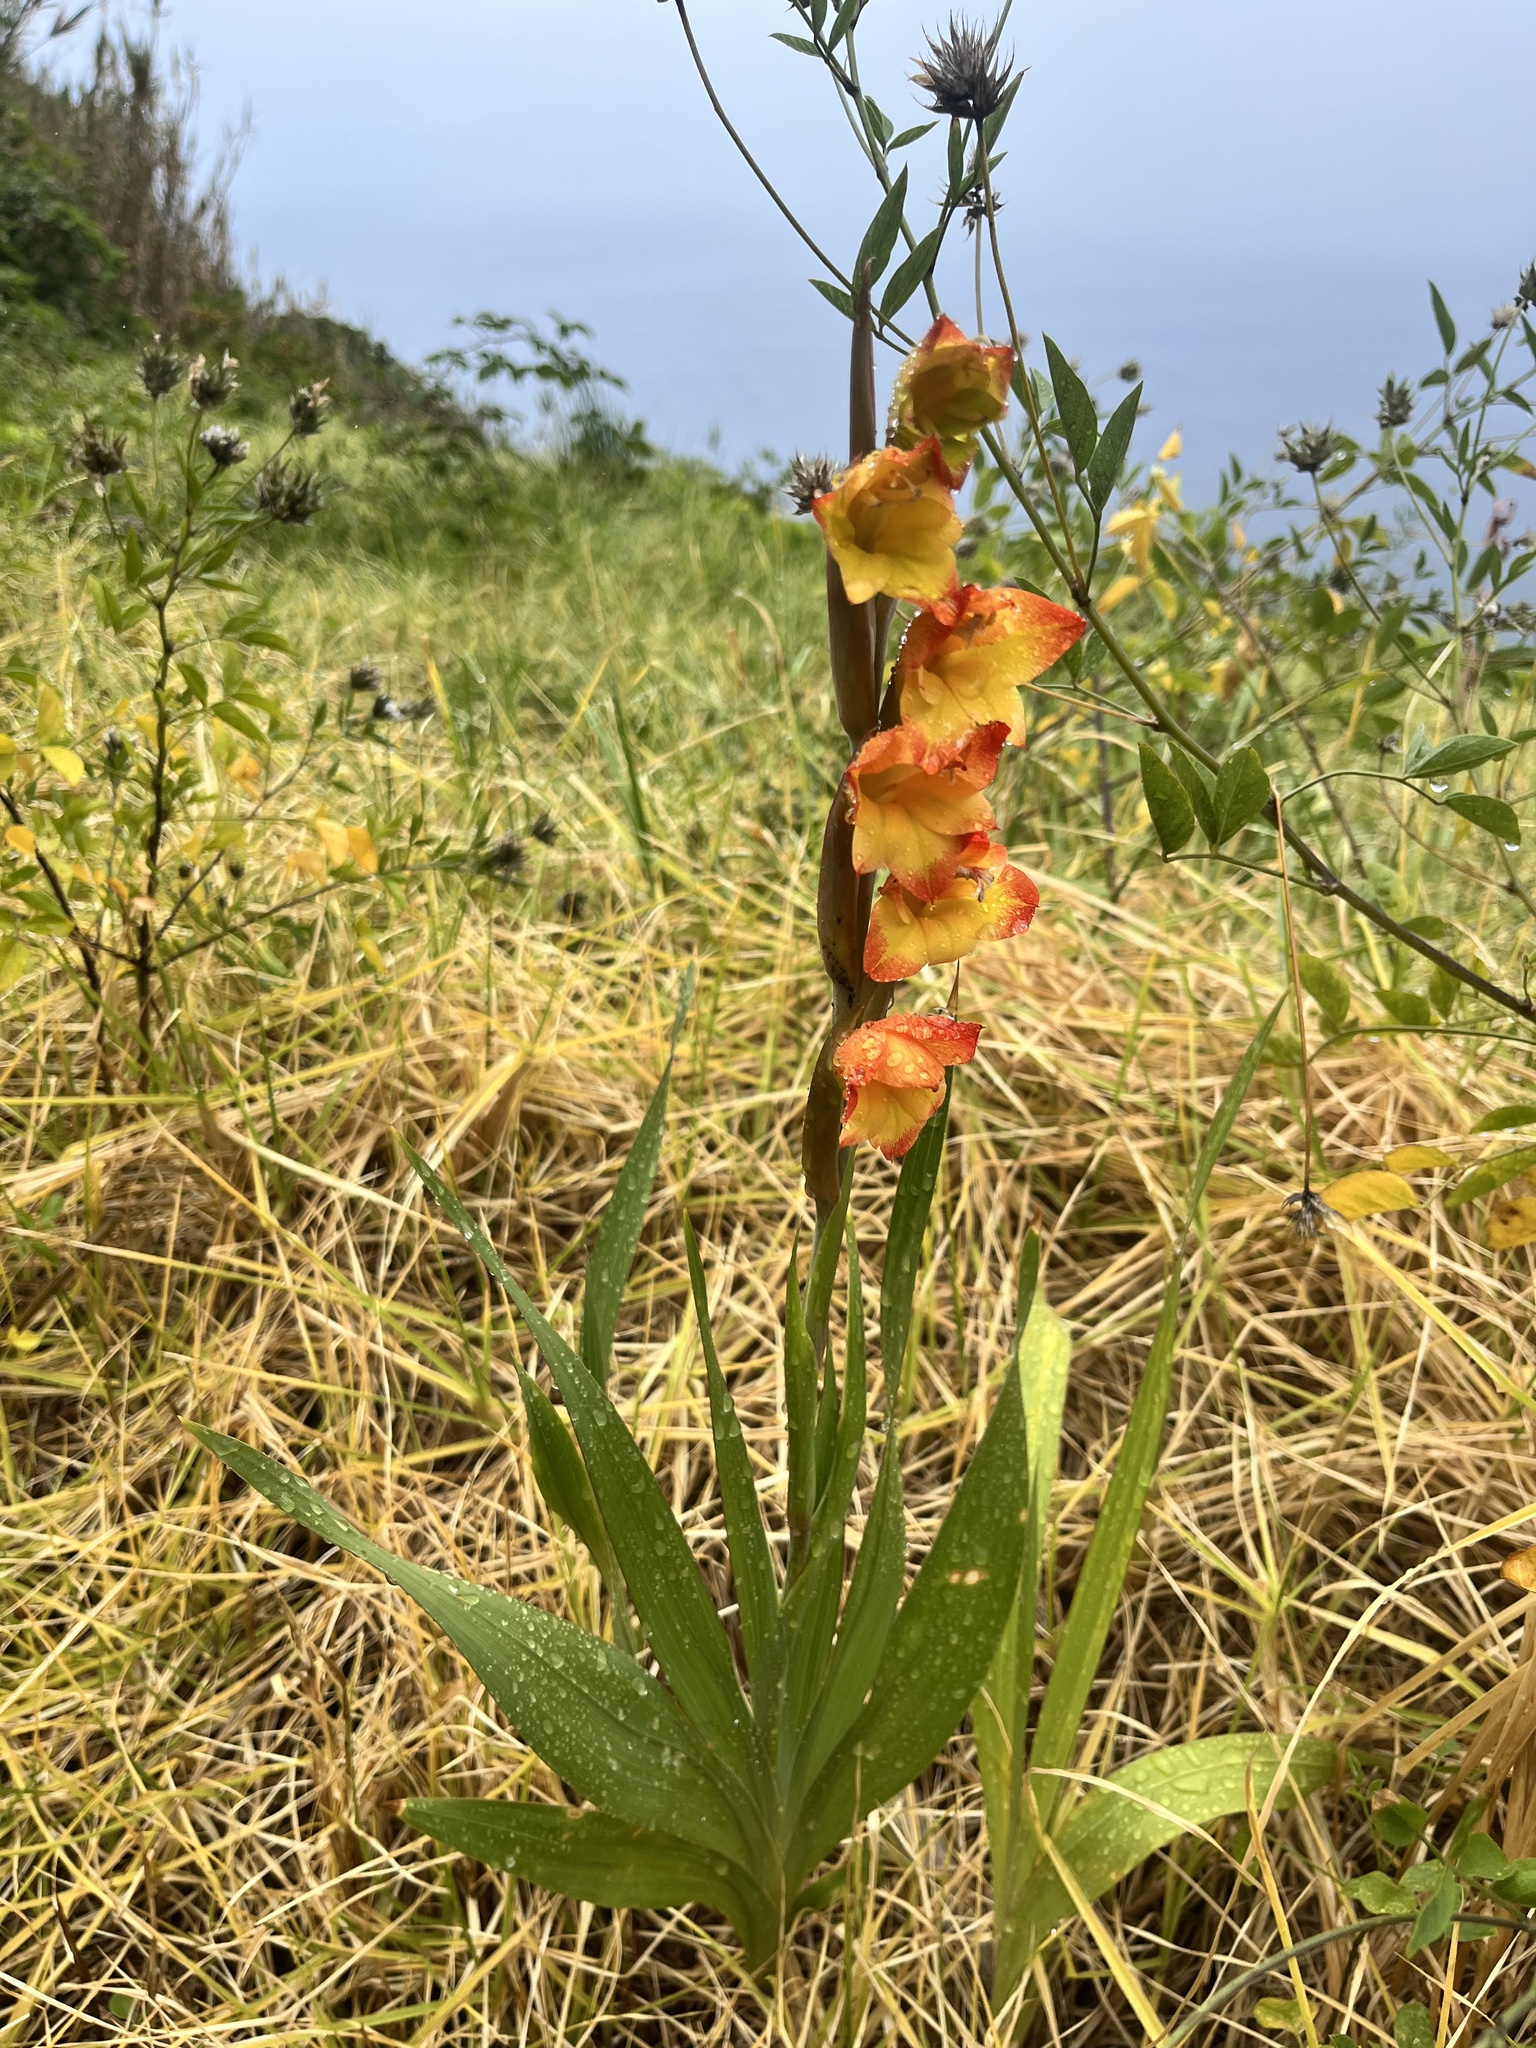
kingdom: Plantae
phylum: Tracheophyta
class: Liliopsida
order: Asparagales
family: Iridaceae
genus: Gladiolus
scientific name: Gladiolus dalenii
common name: Cornflag
